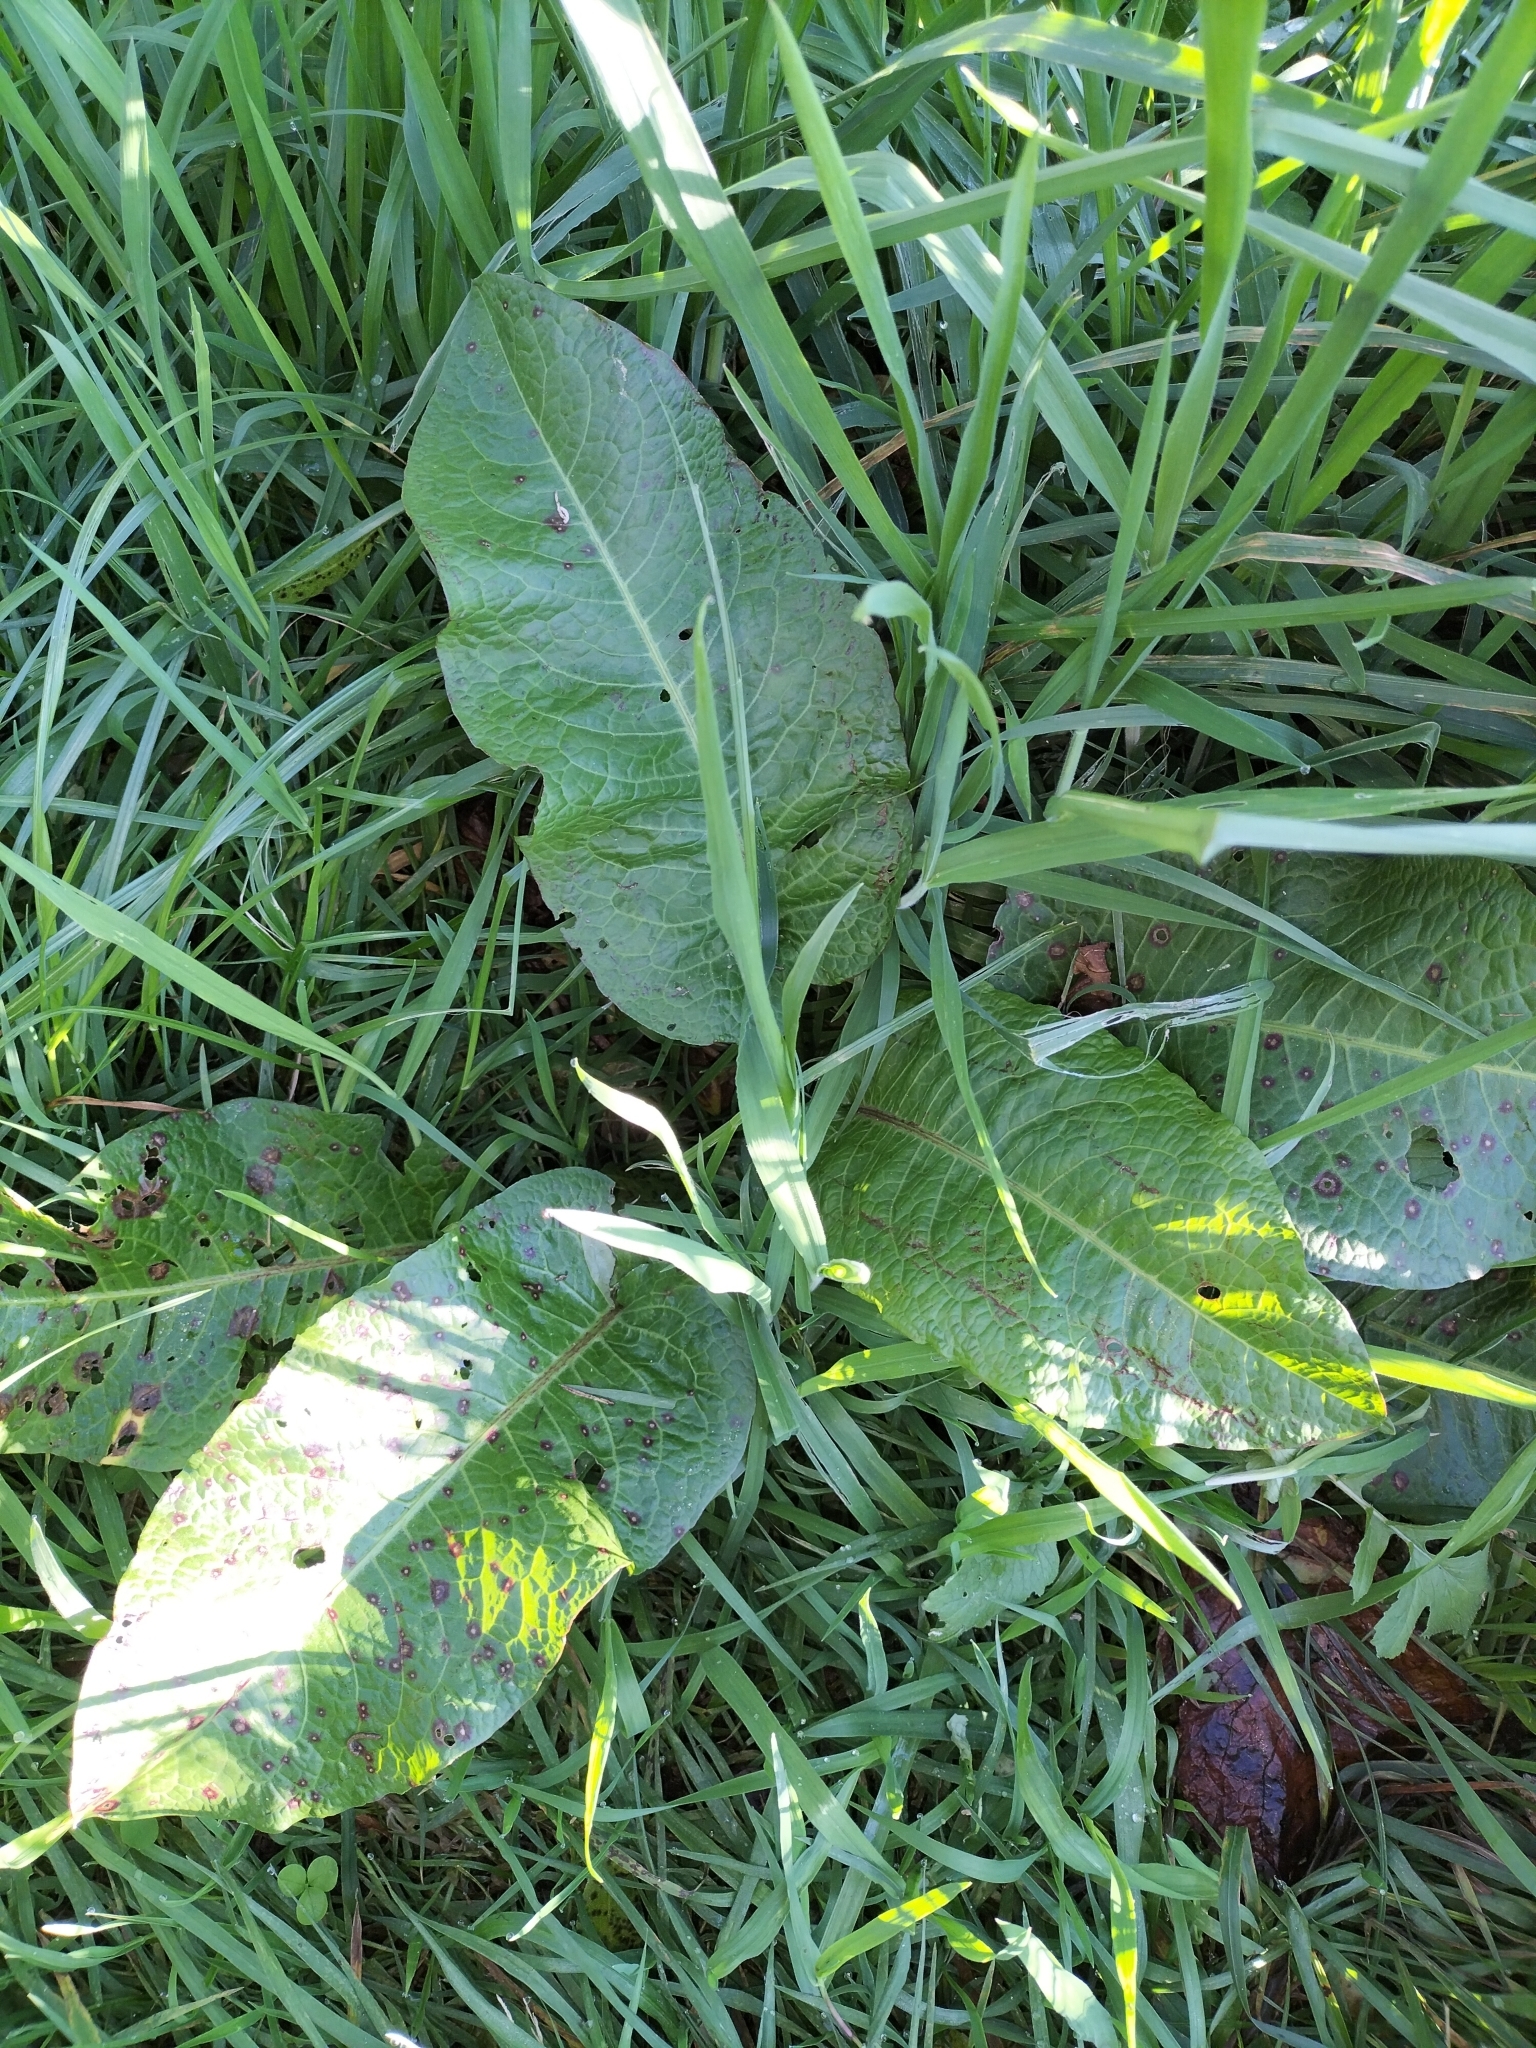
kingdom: Plantae
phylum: Tracheophyta
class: Magnoliopsida
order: Caryophyllales
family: Polygonaceae
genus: Rumex
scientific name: Rumex obtusifolius
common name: Bitter dock
